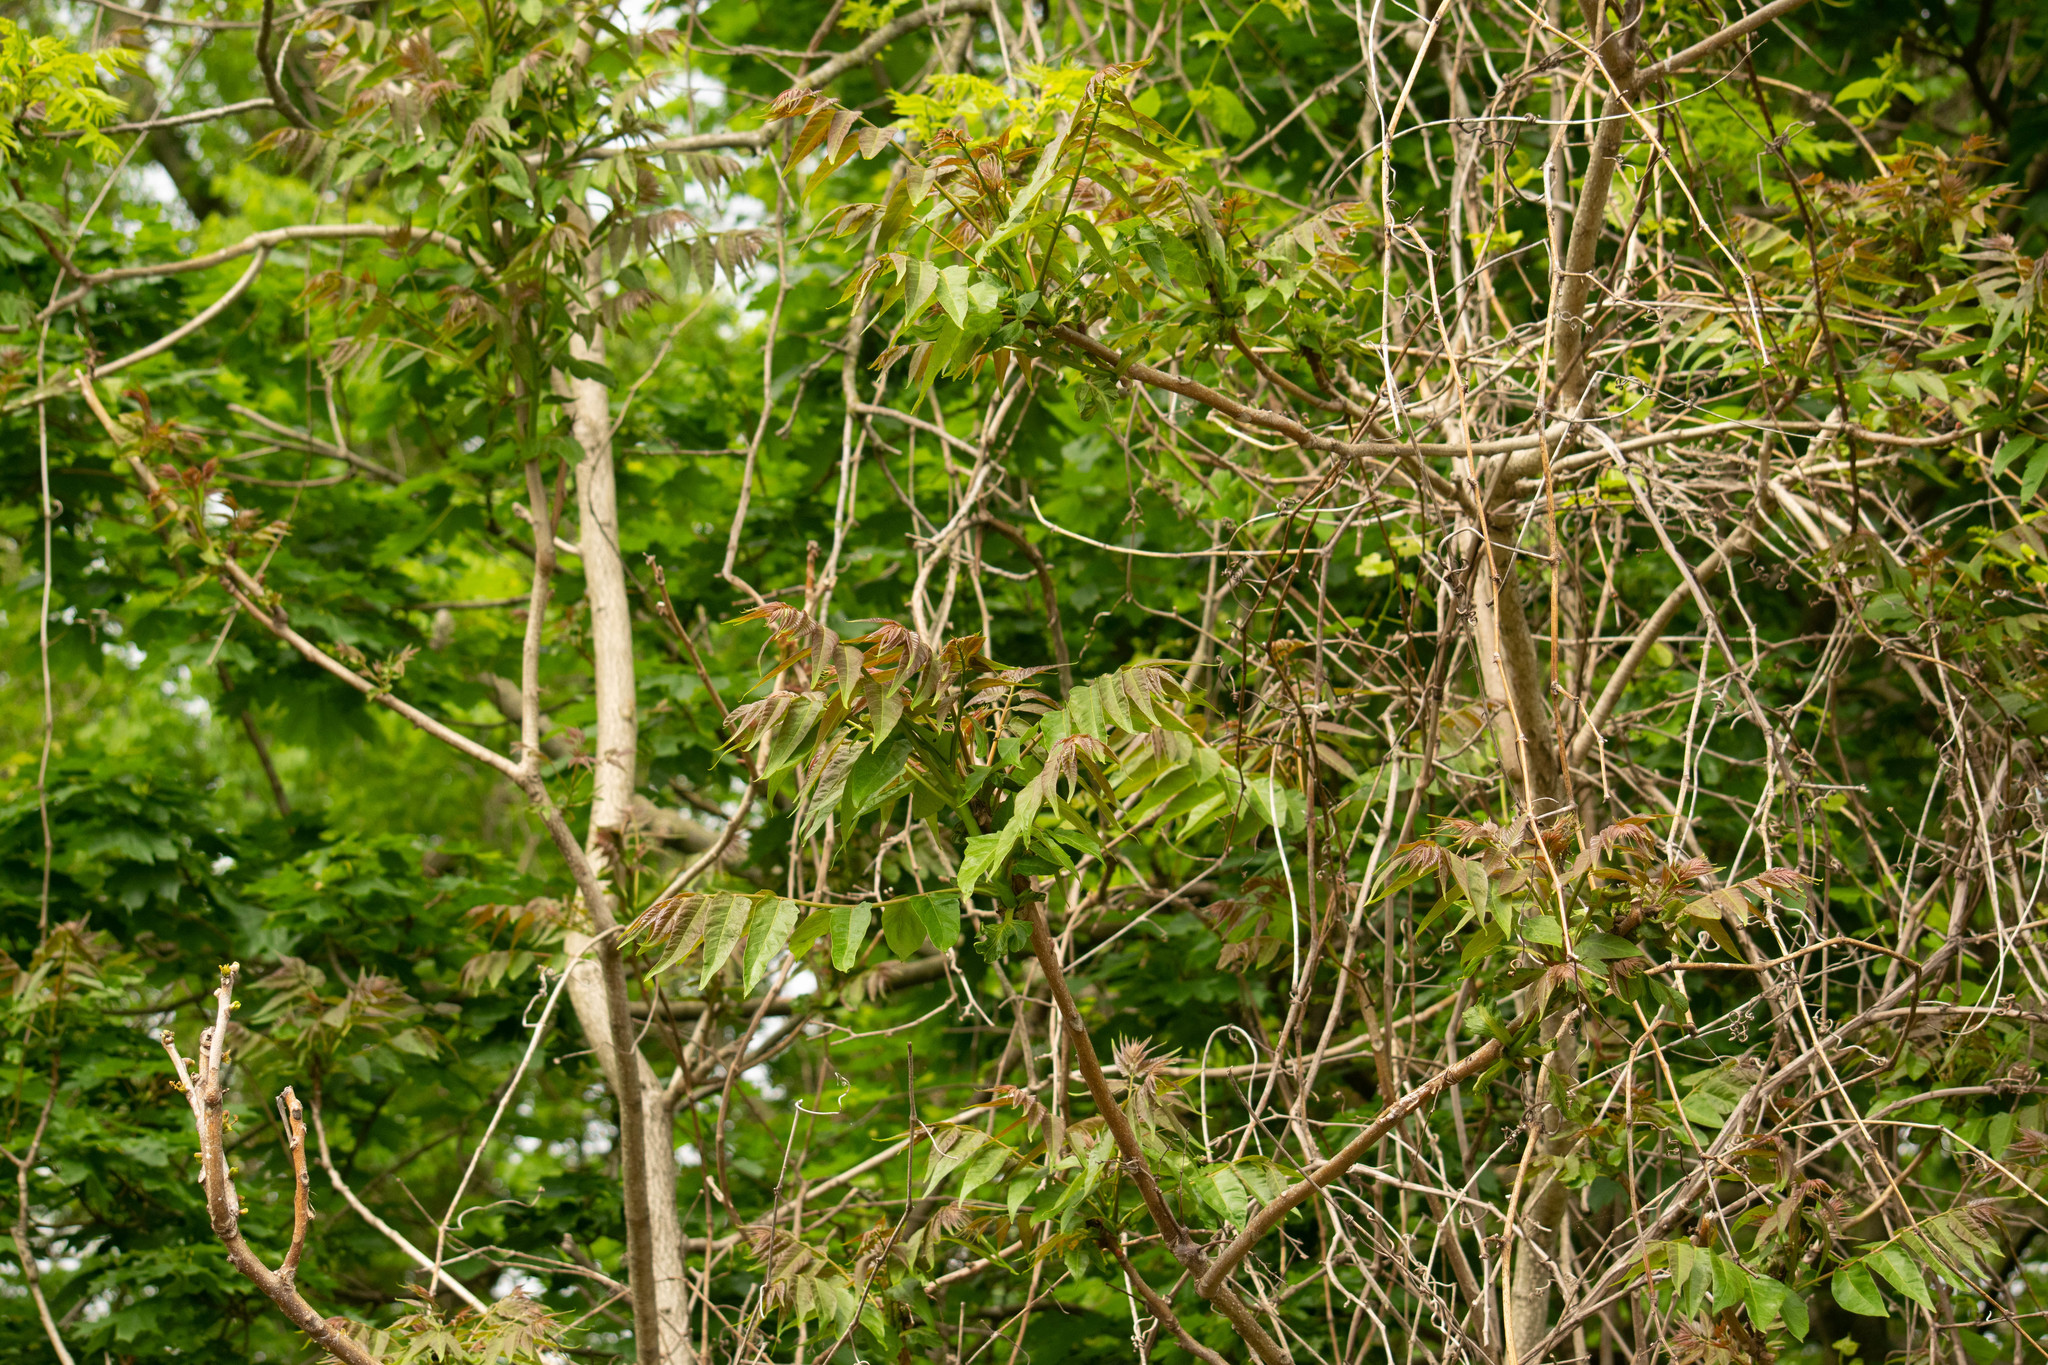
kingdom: Plantae
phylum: Tracheophyta
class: Magnoliopsida
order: Sapindales
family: Simaroubaceae
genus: Ailanthus
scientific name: Ailanthus altissima
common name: Tree-of-heaven
